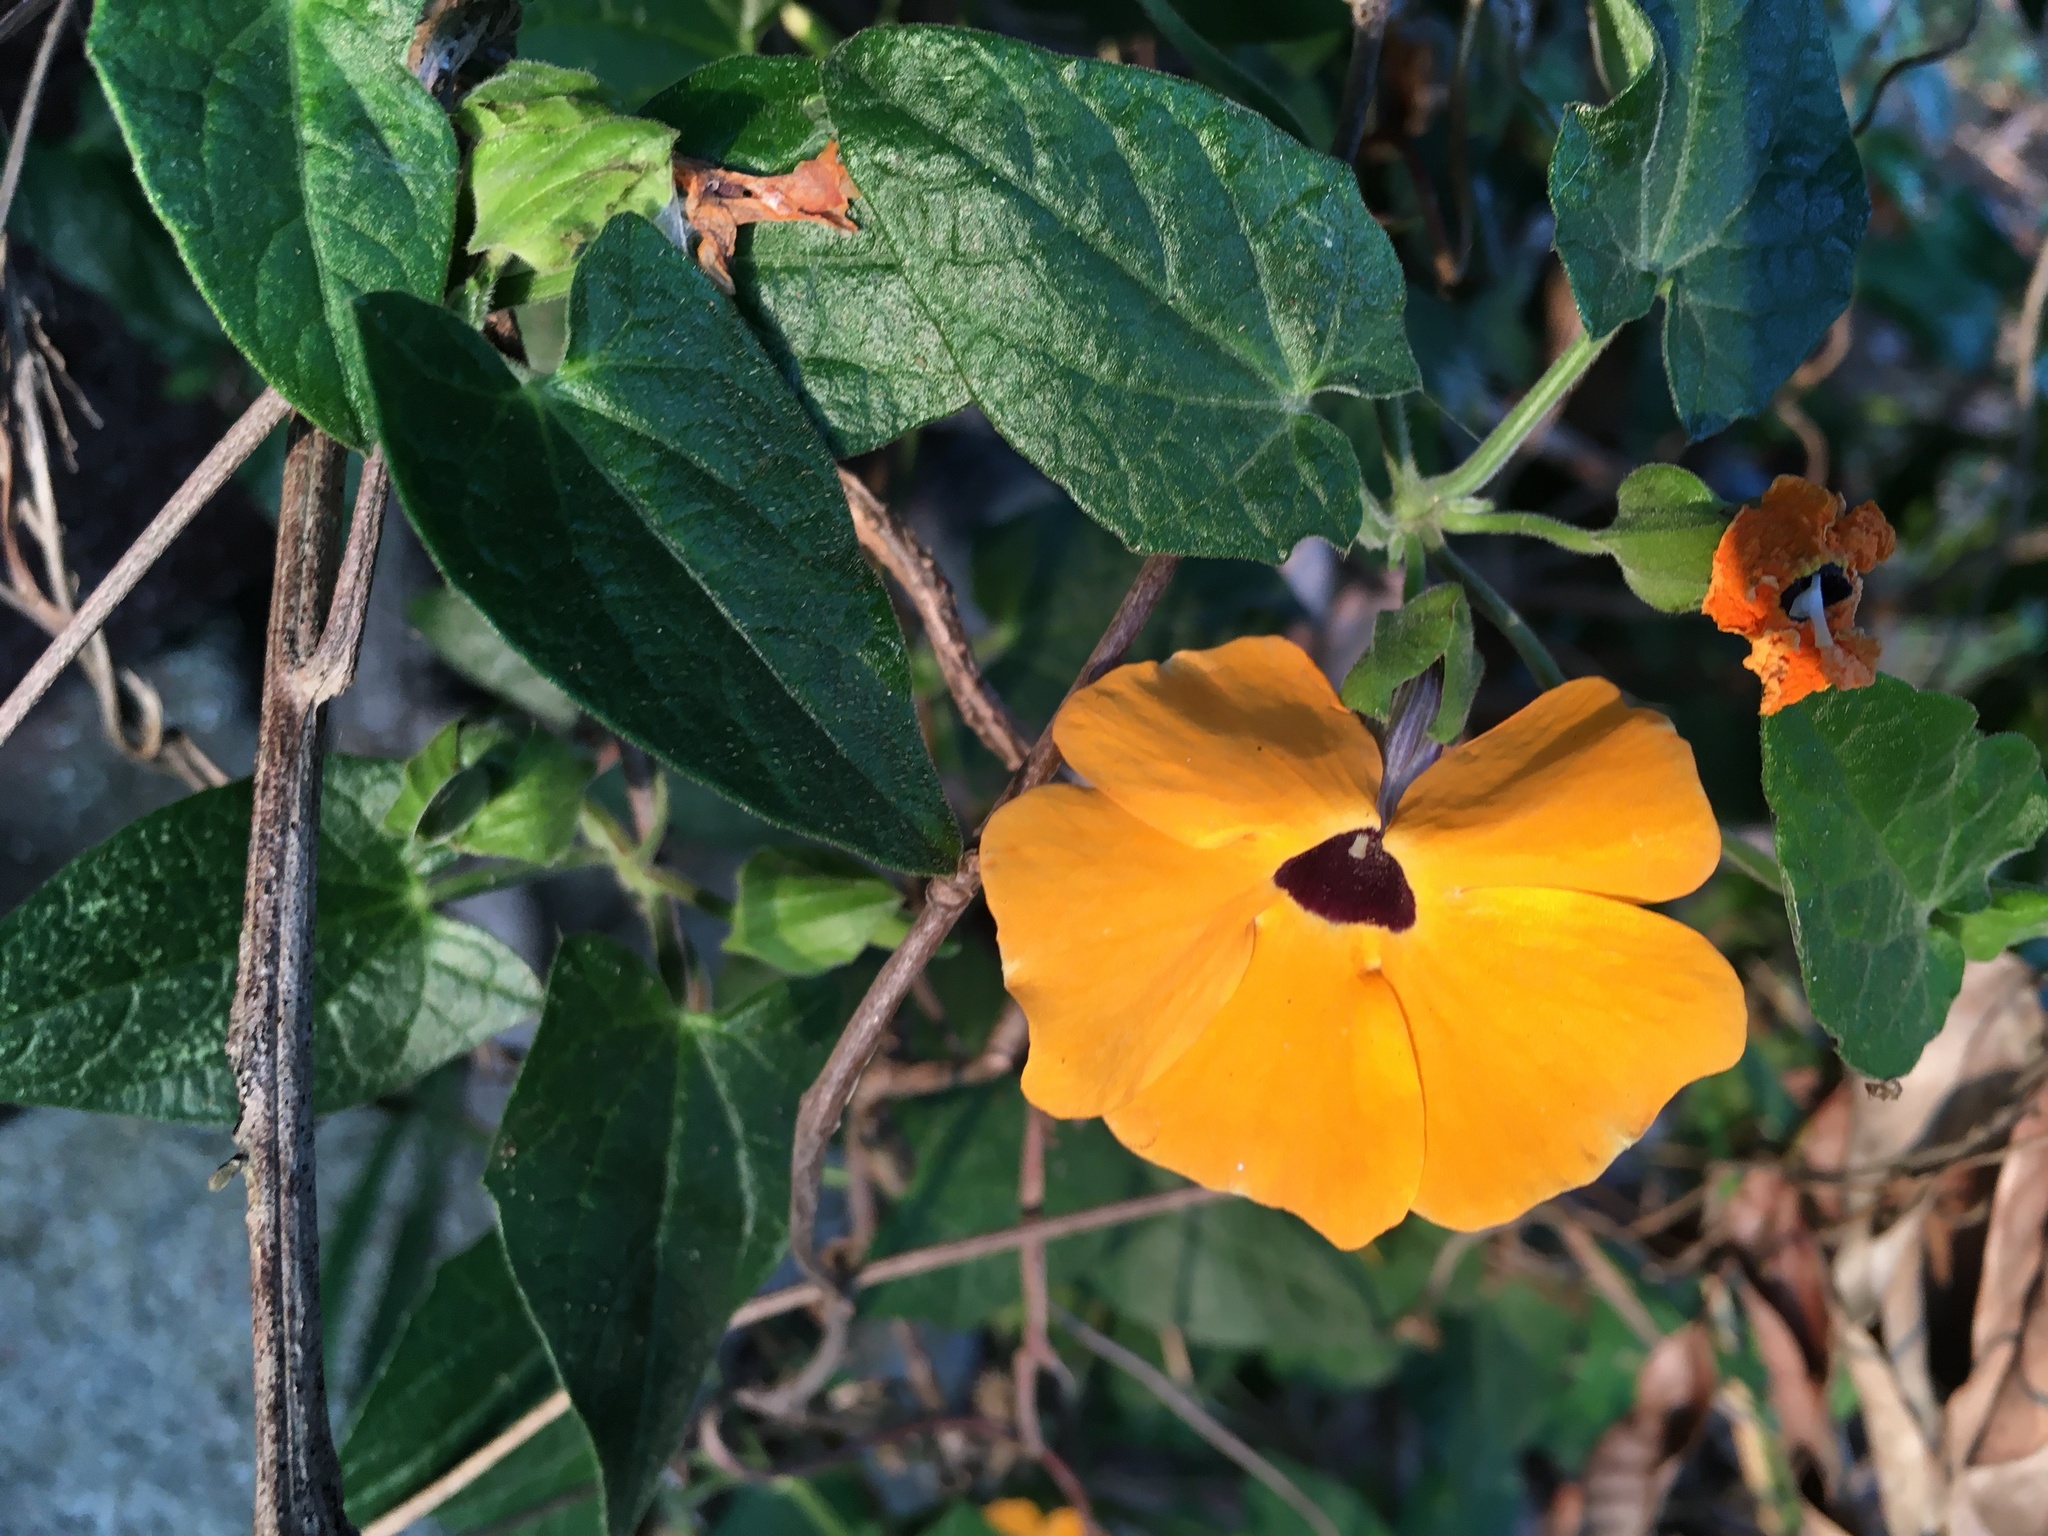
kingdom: Plantae
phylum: Tracheophyta
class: Magnoliopsida
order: Lamiales
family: Acanthaceae
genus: Thunbergia
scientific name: Thunbergia alata
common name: Blackeyed susan vine
